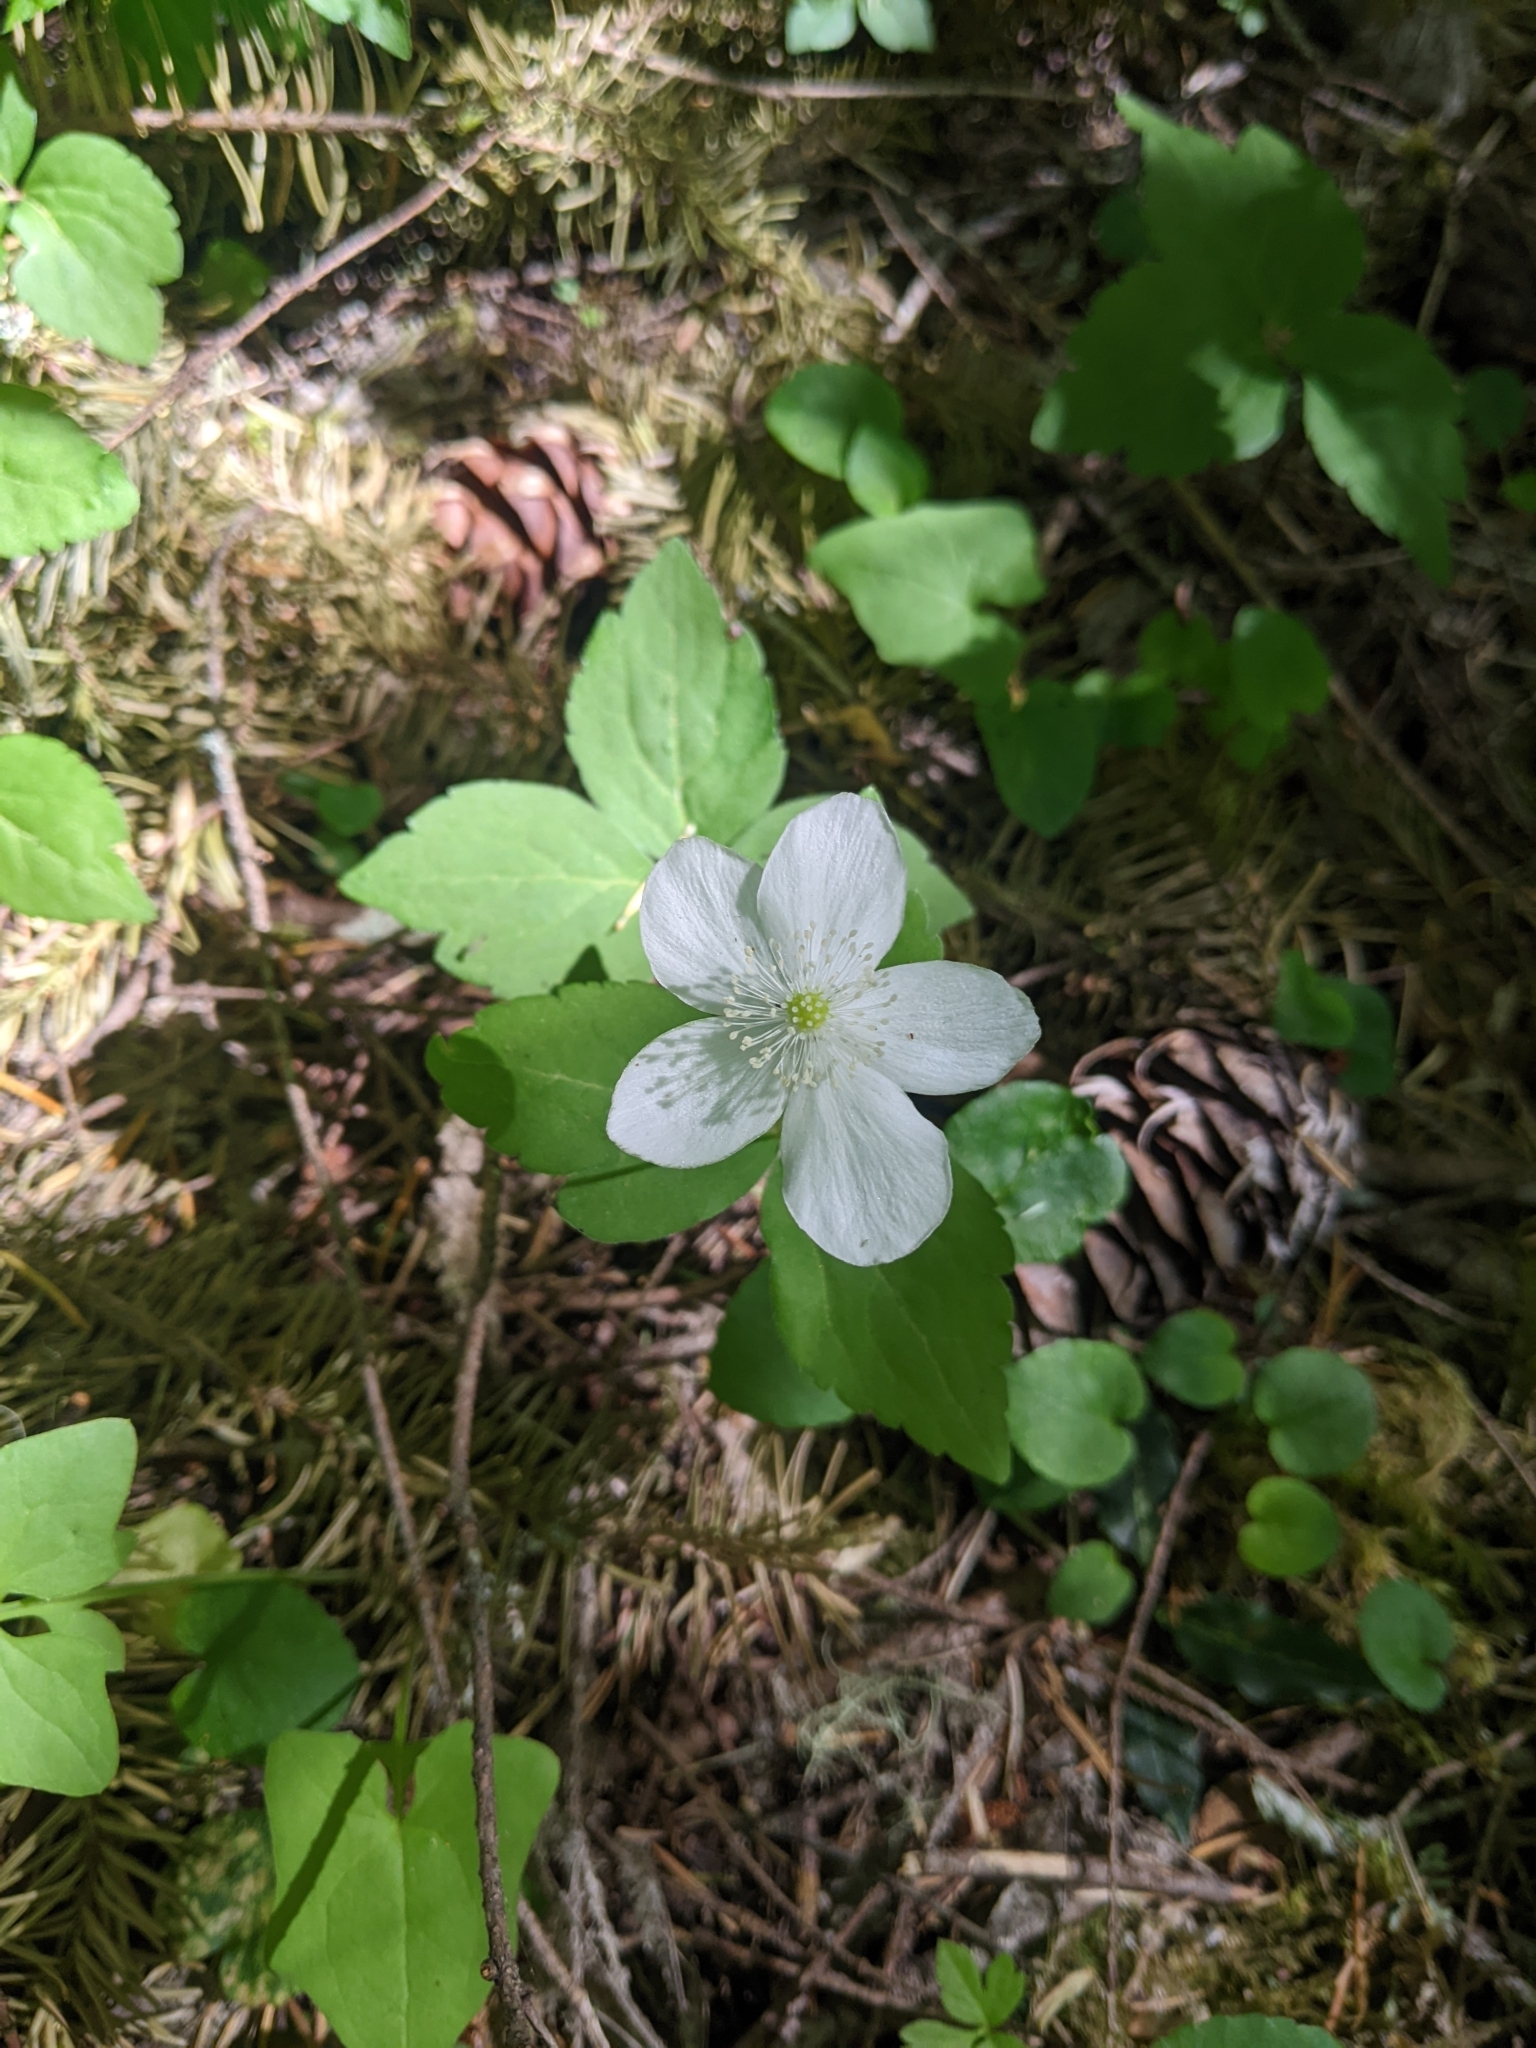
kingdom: Plantae
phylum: Tracheophyta
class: Magnoliopsida
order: Ranunculales
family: Ranunculaceae
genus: Anemonastrum
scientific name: Anemonastrum deltoideum
